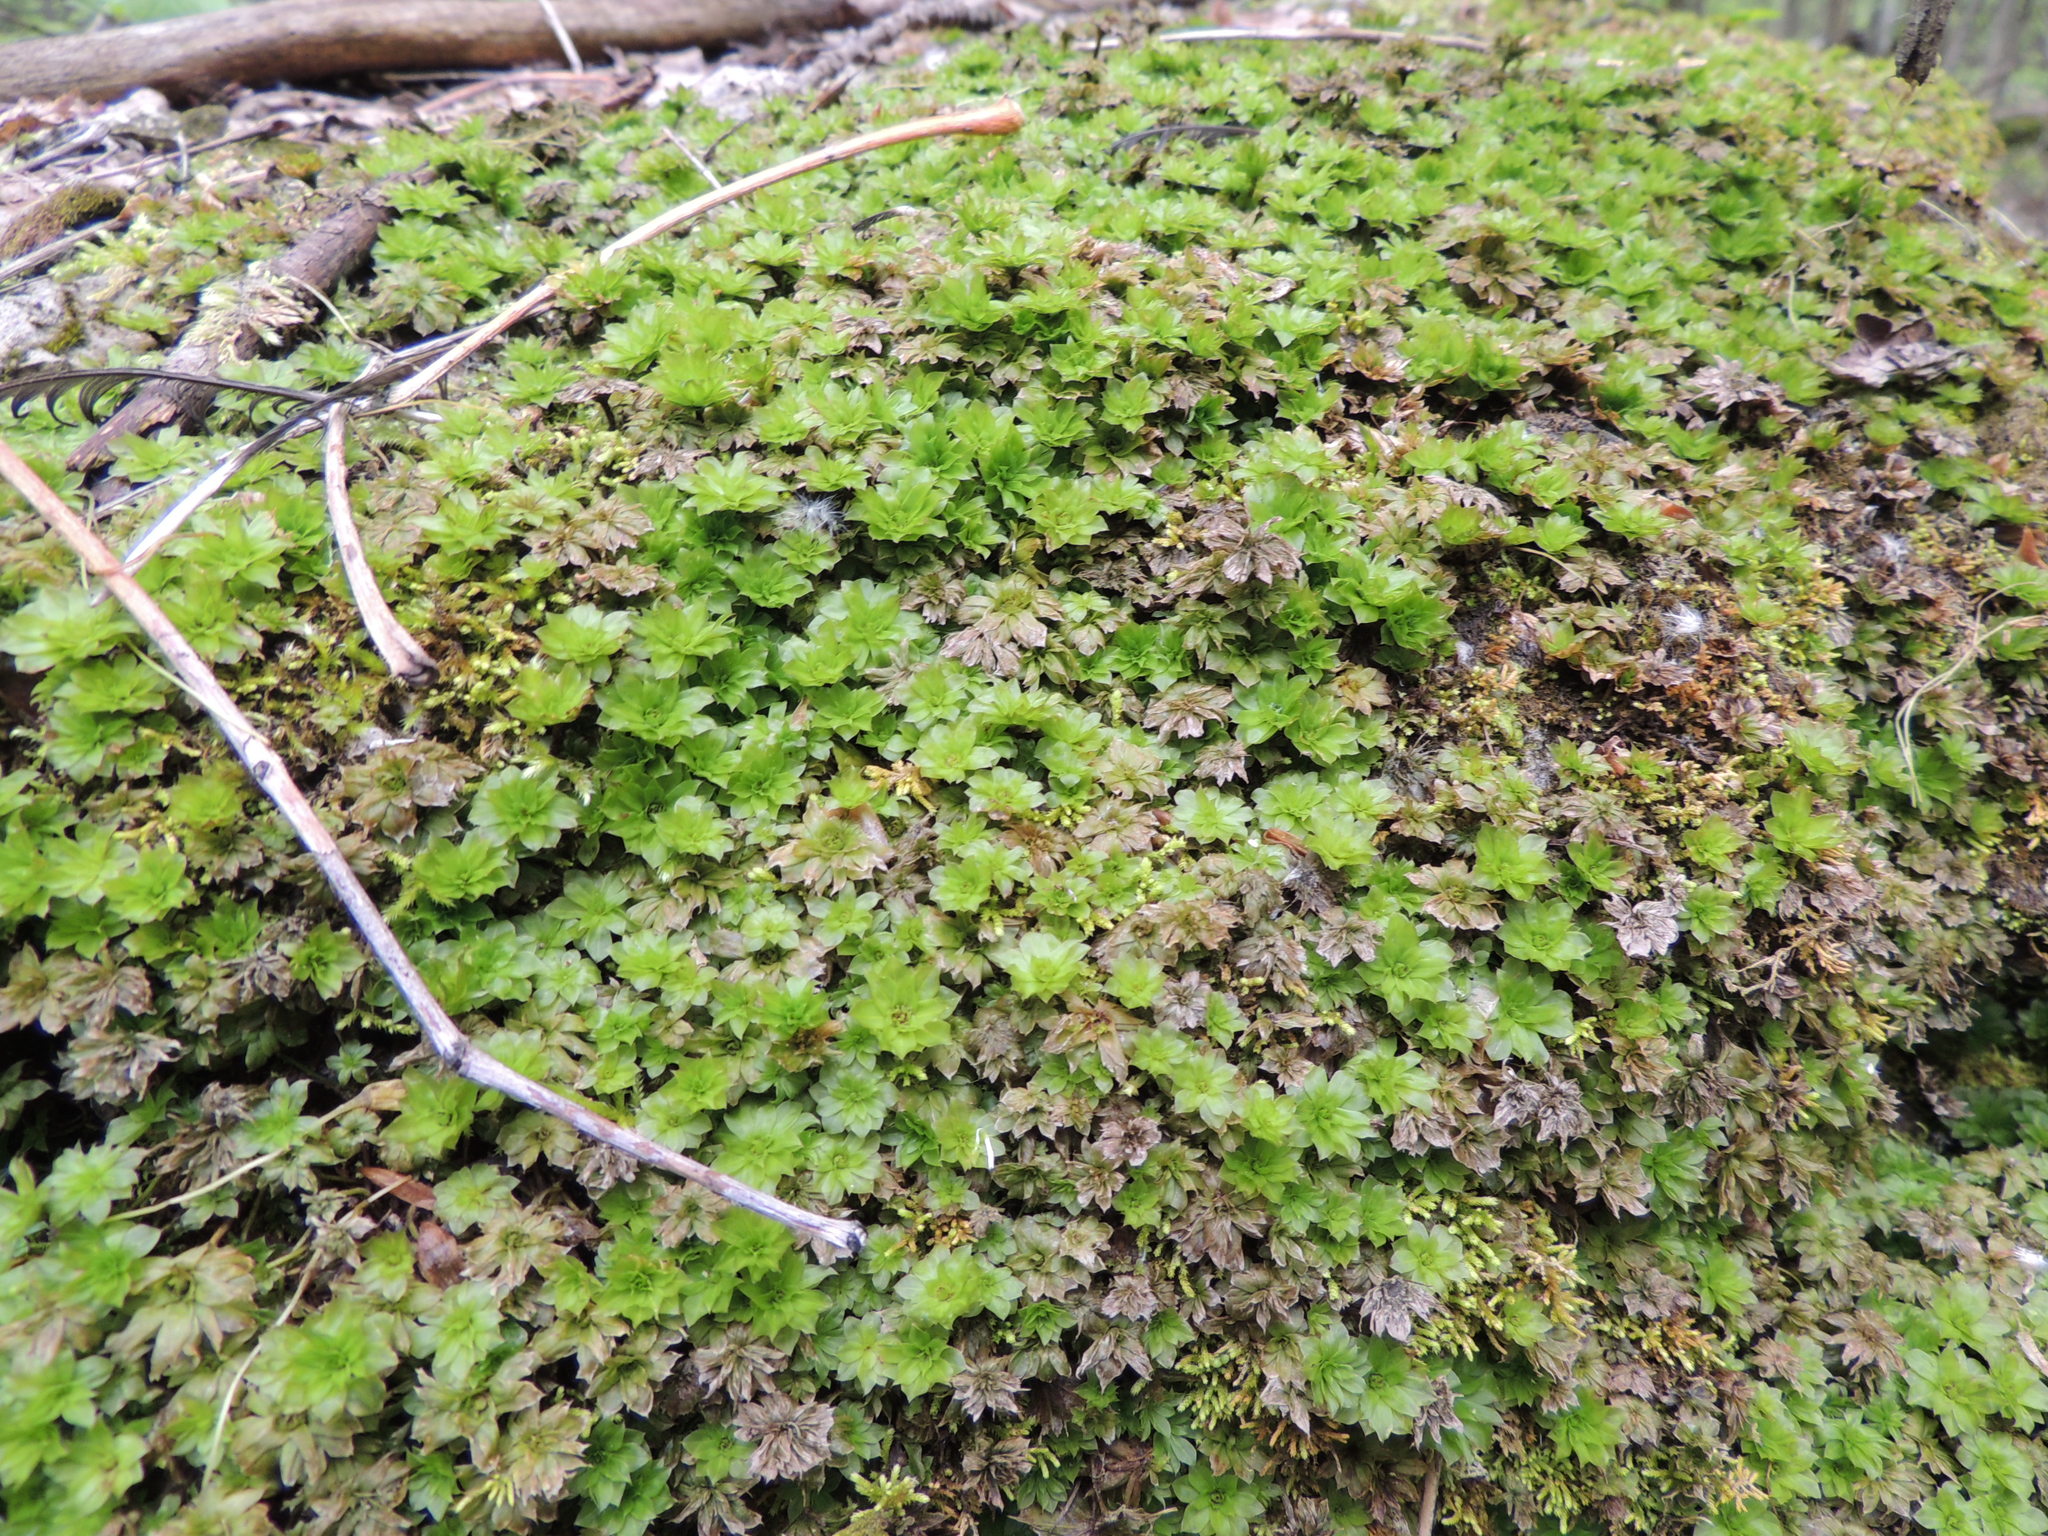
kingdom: Plantae
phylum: Bryophyta
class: Bryopsida
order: Bryales
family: Bryaceae
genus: Rhodobryum
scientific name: Rhodobryum ontariense
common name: Ontario rhodobryum moss
